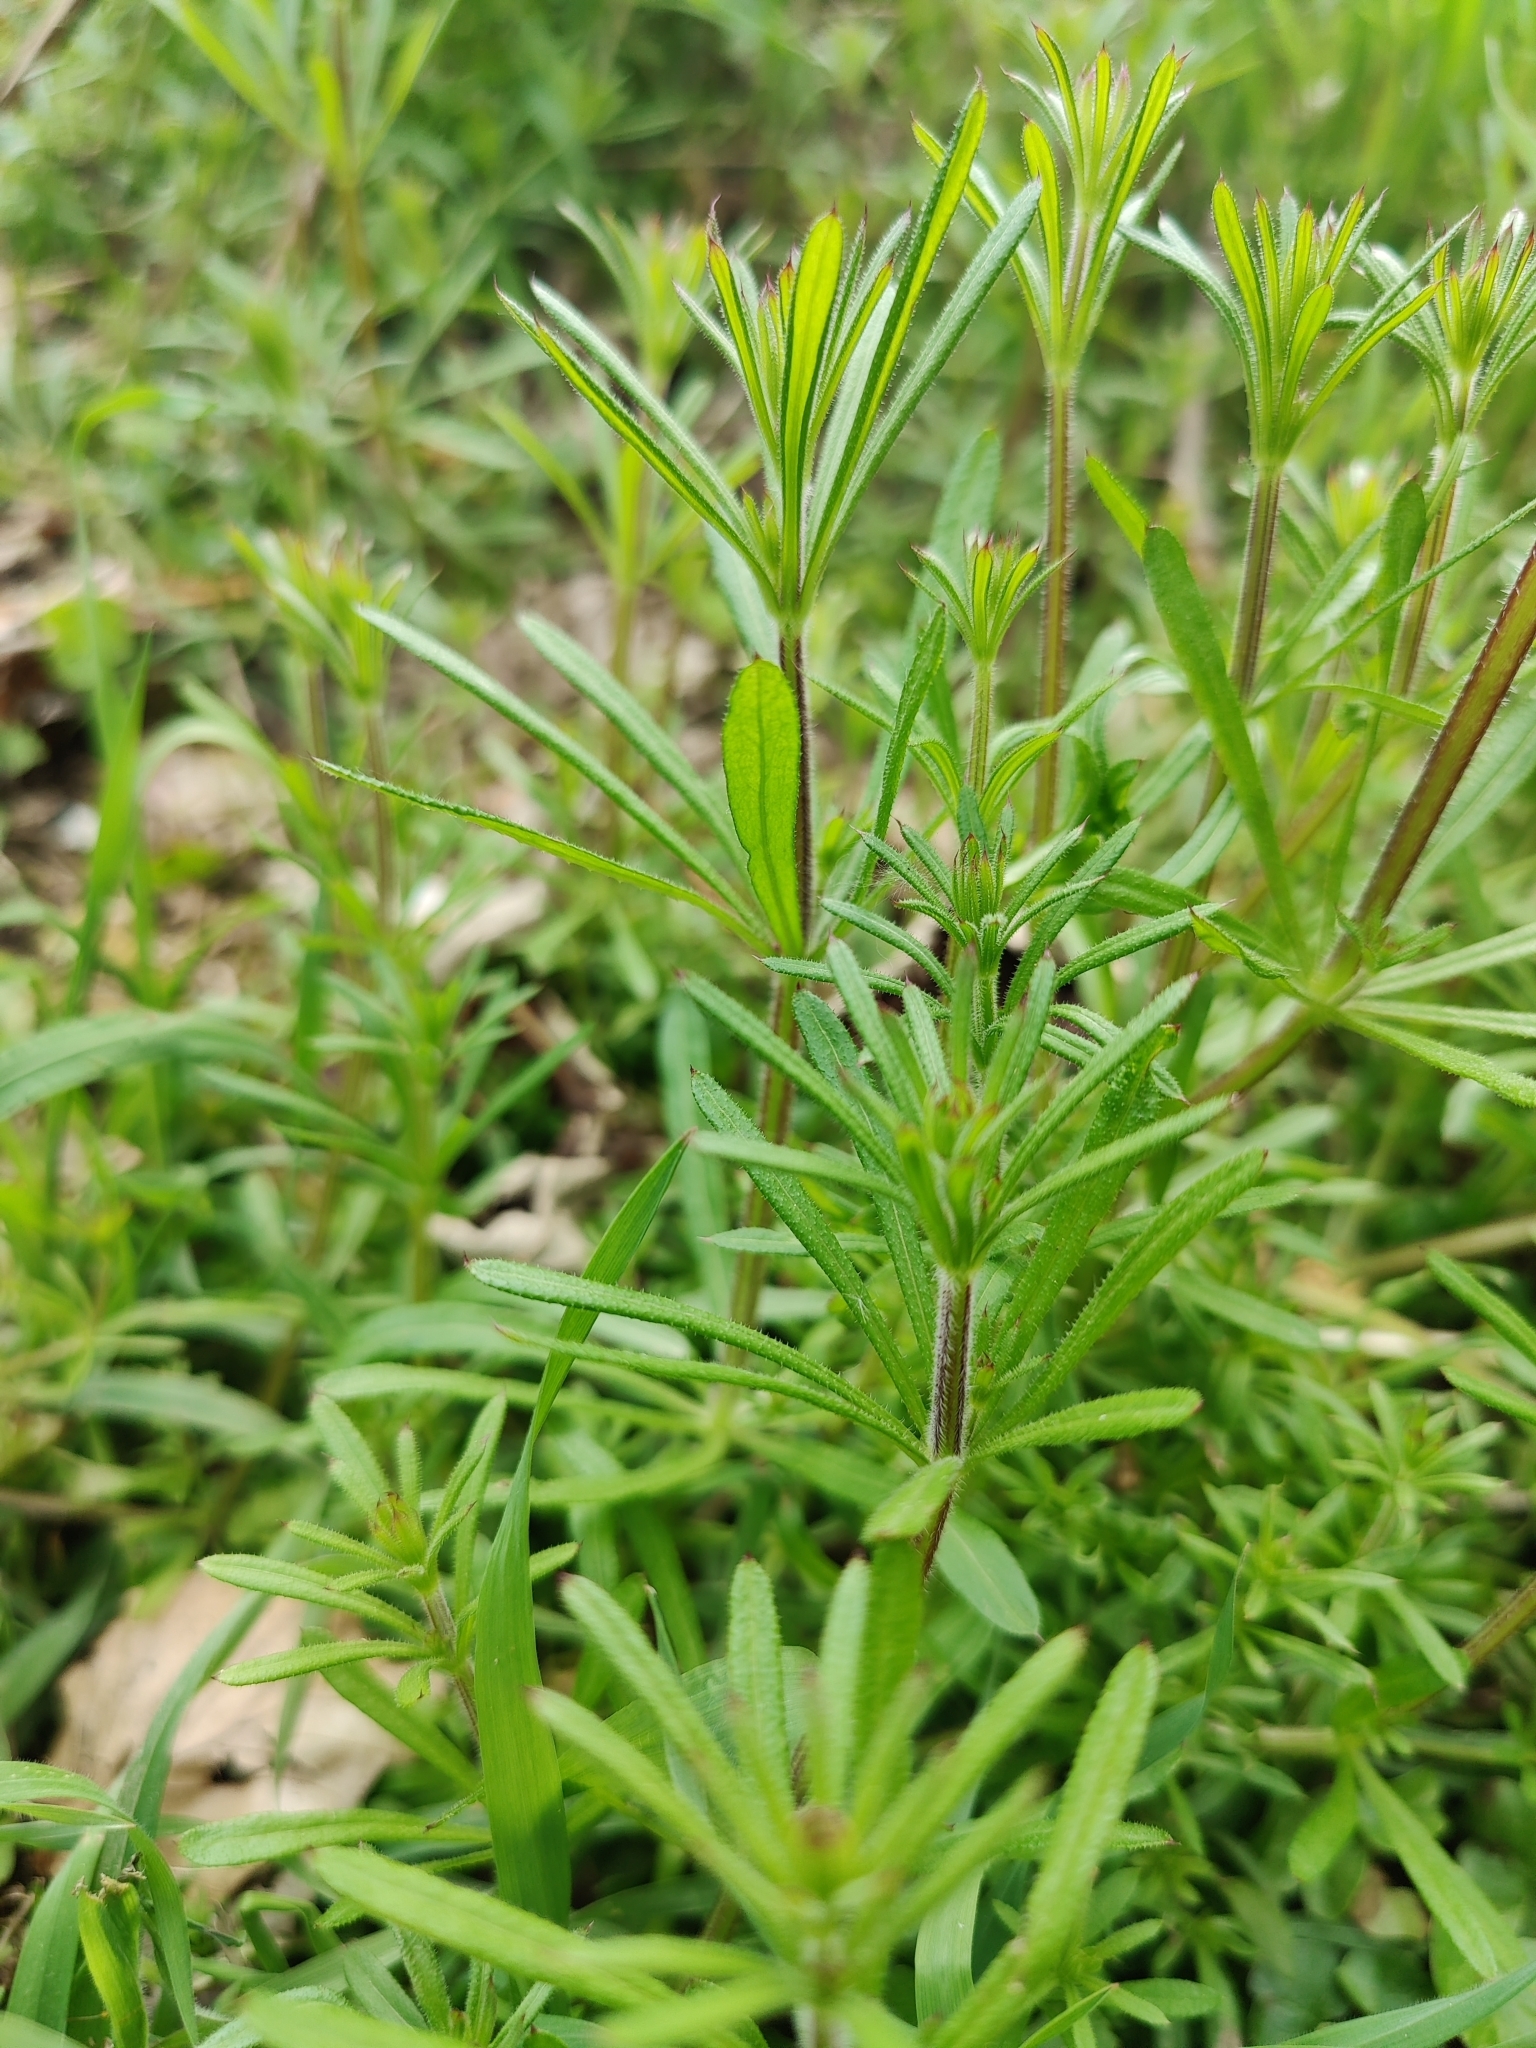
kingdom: Plantae
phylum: Tracheophyta
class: Magnoliopsida
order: Gentianales
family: Rubiaceae
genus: Galium
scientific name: Galium aparine
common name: Cleavers
